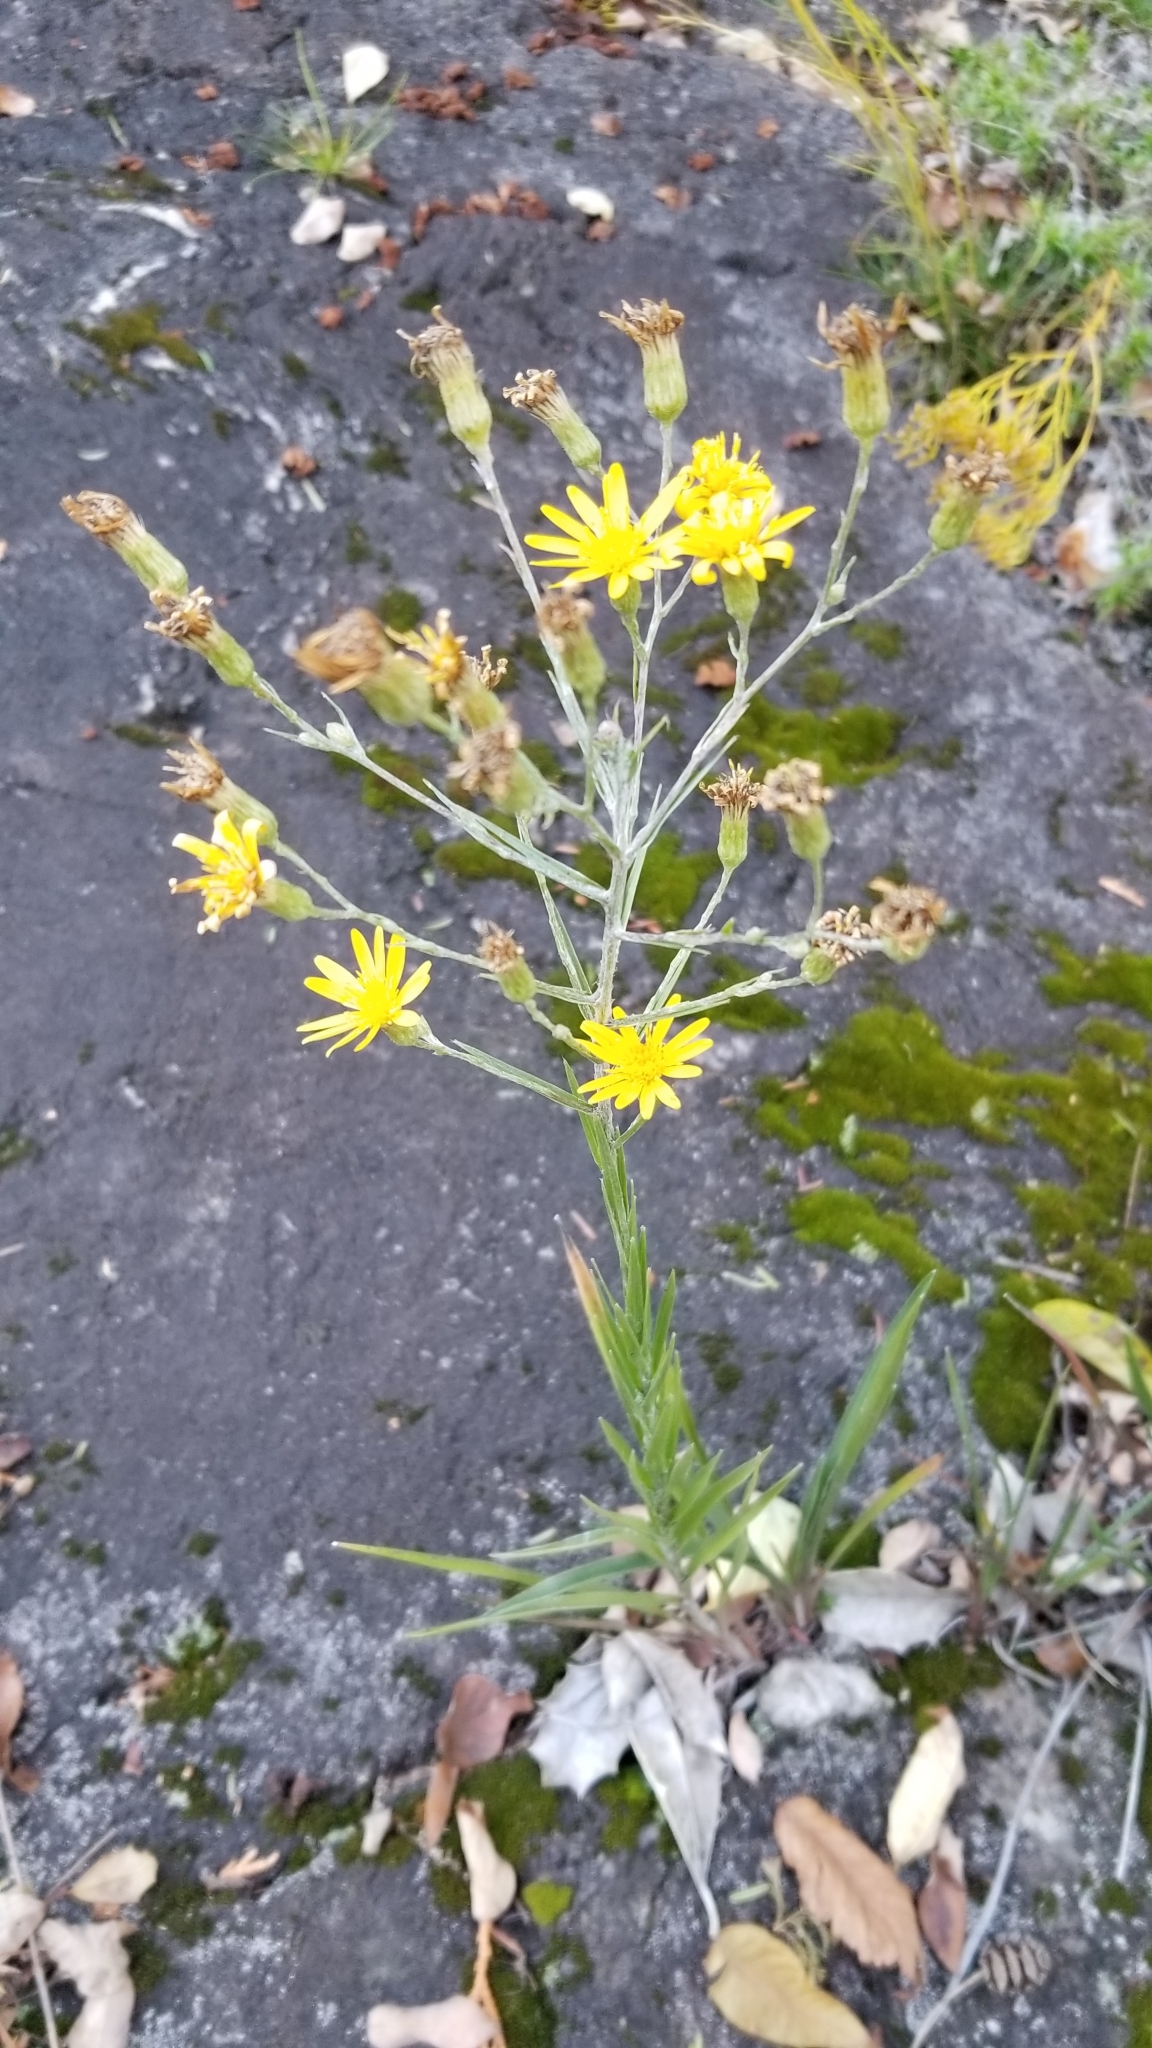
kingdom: Plantae
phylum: Tracheophyta
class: Magnoliopsida
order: Asterales
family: Asteraceae
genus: Pityopsis
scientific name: Pityopsis graminifolia
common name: Grass-leaf golden-aster
